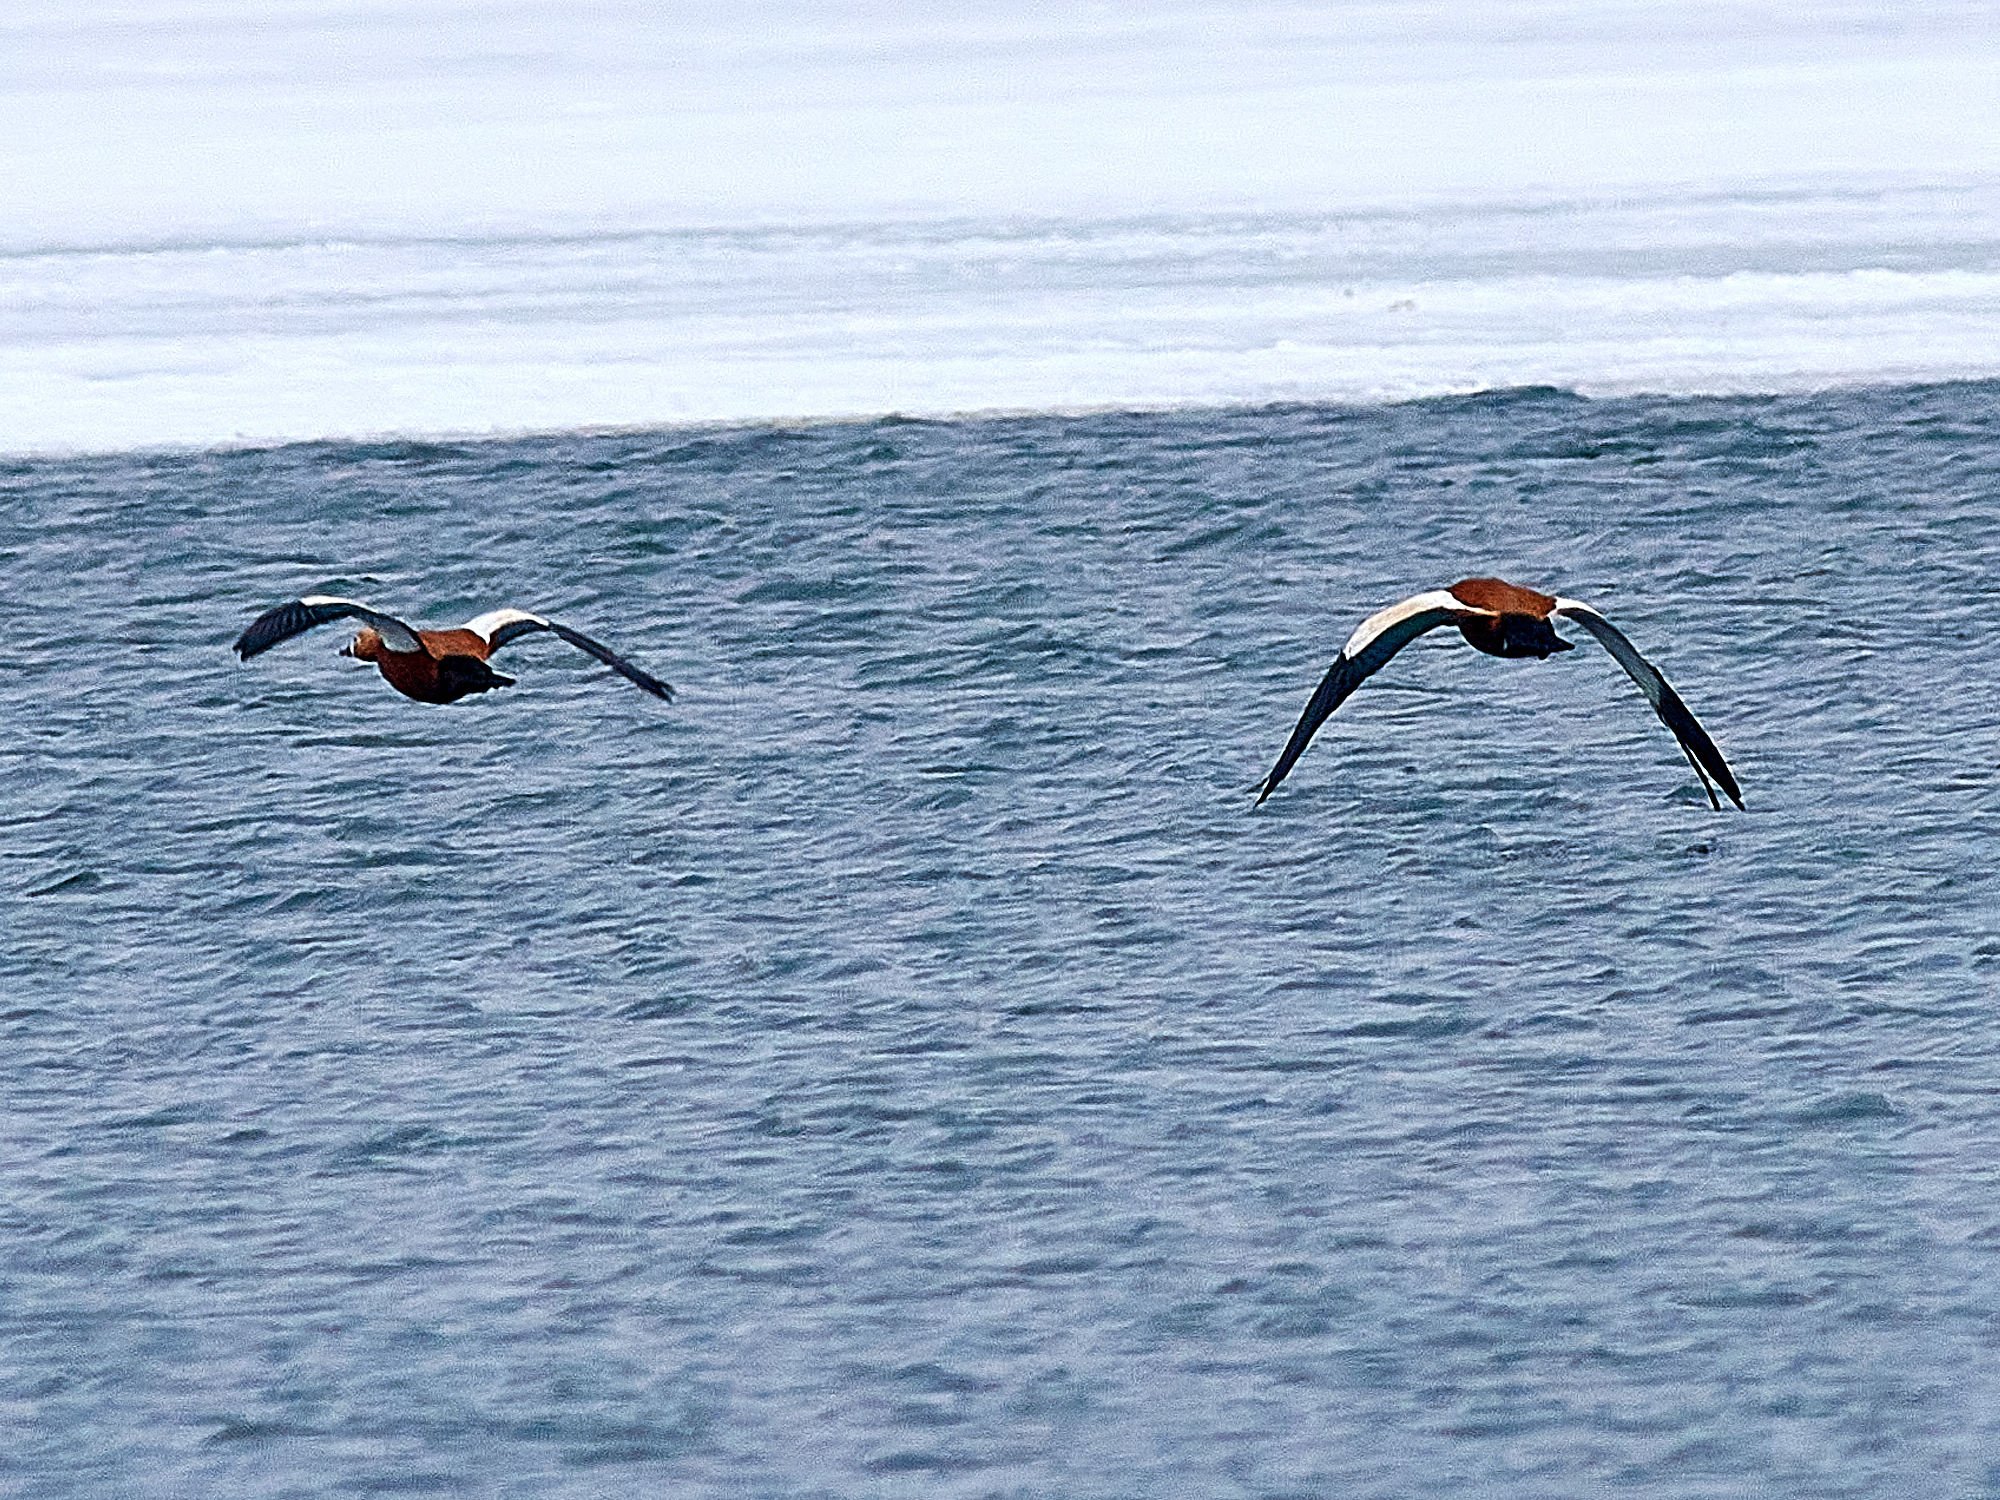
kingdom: Animalia
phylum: Chordata
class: Aves
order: Anseriformes
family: Anatidae
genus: Tadorna
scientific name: Tadorna ferruginea
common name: Ruddy shelduck
